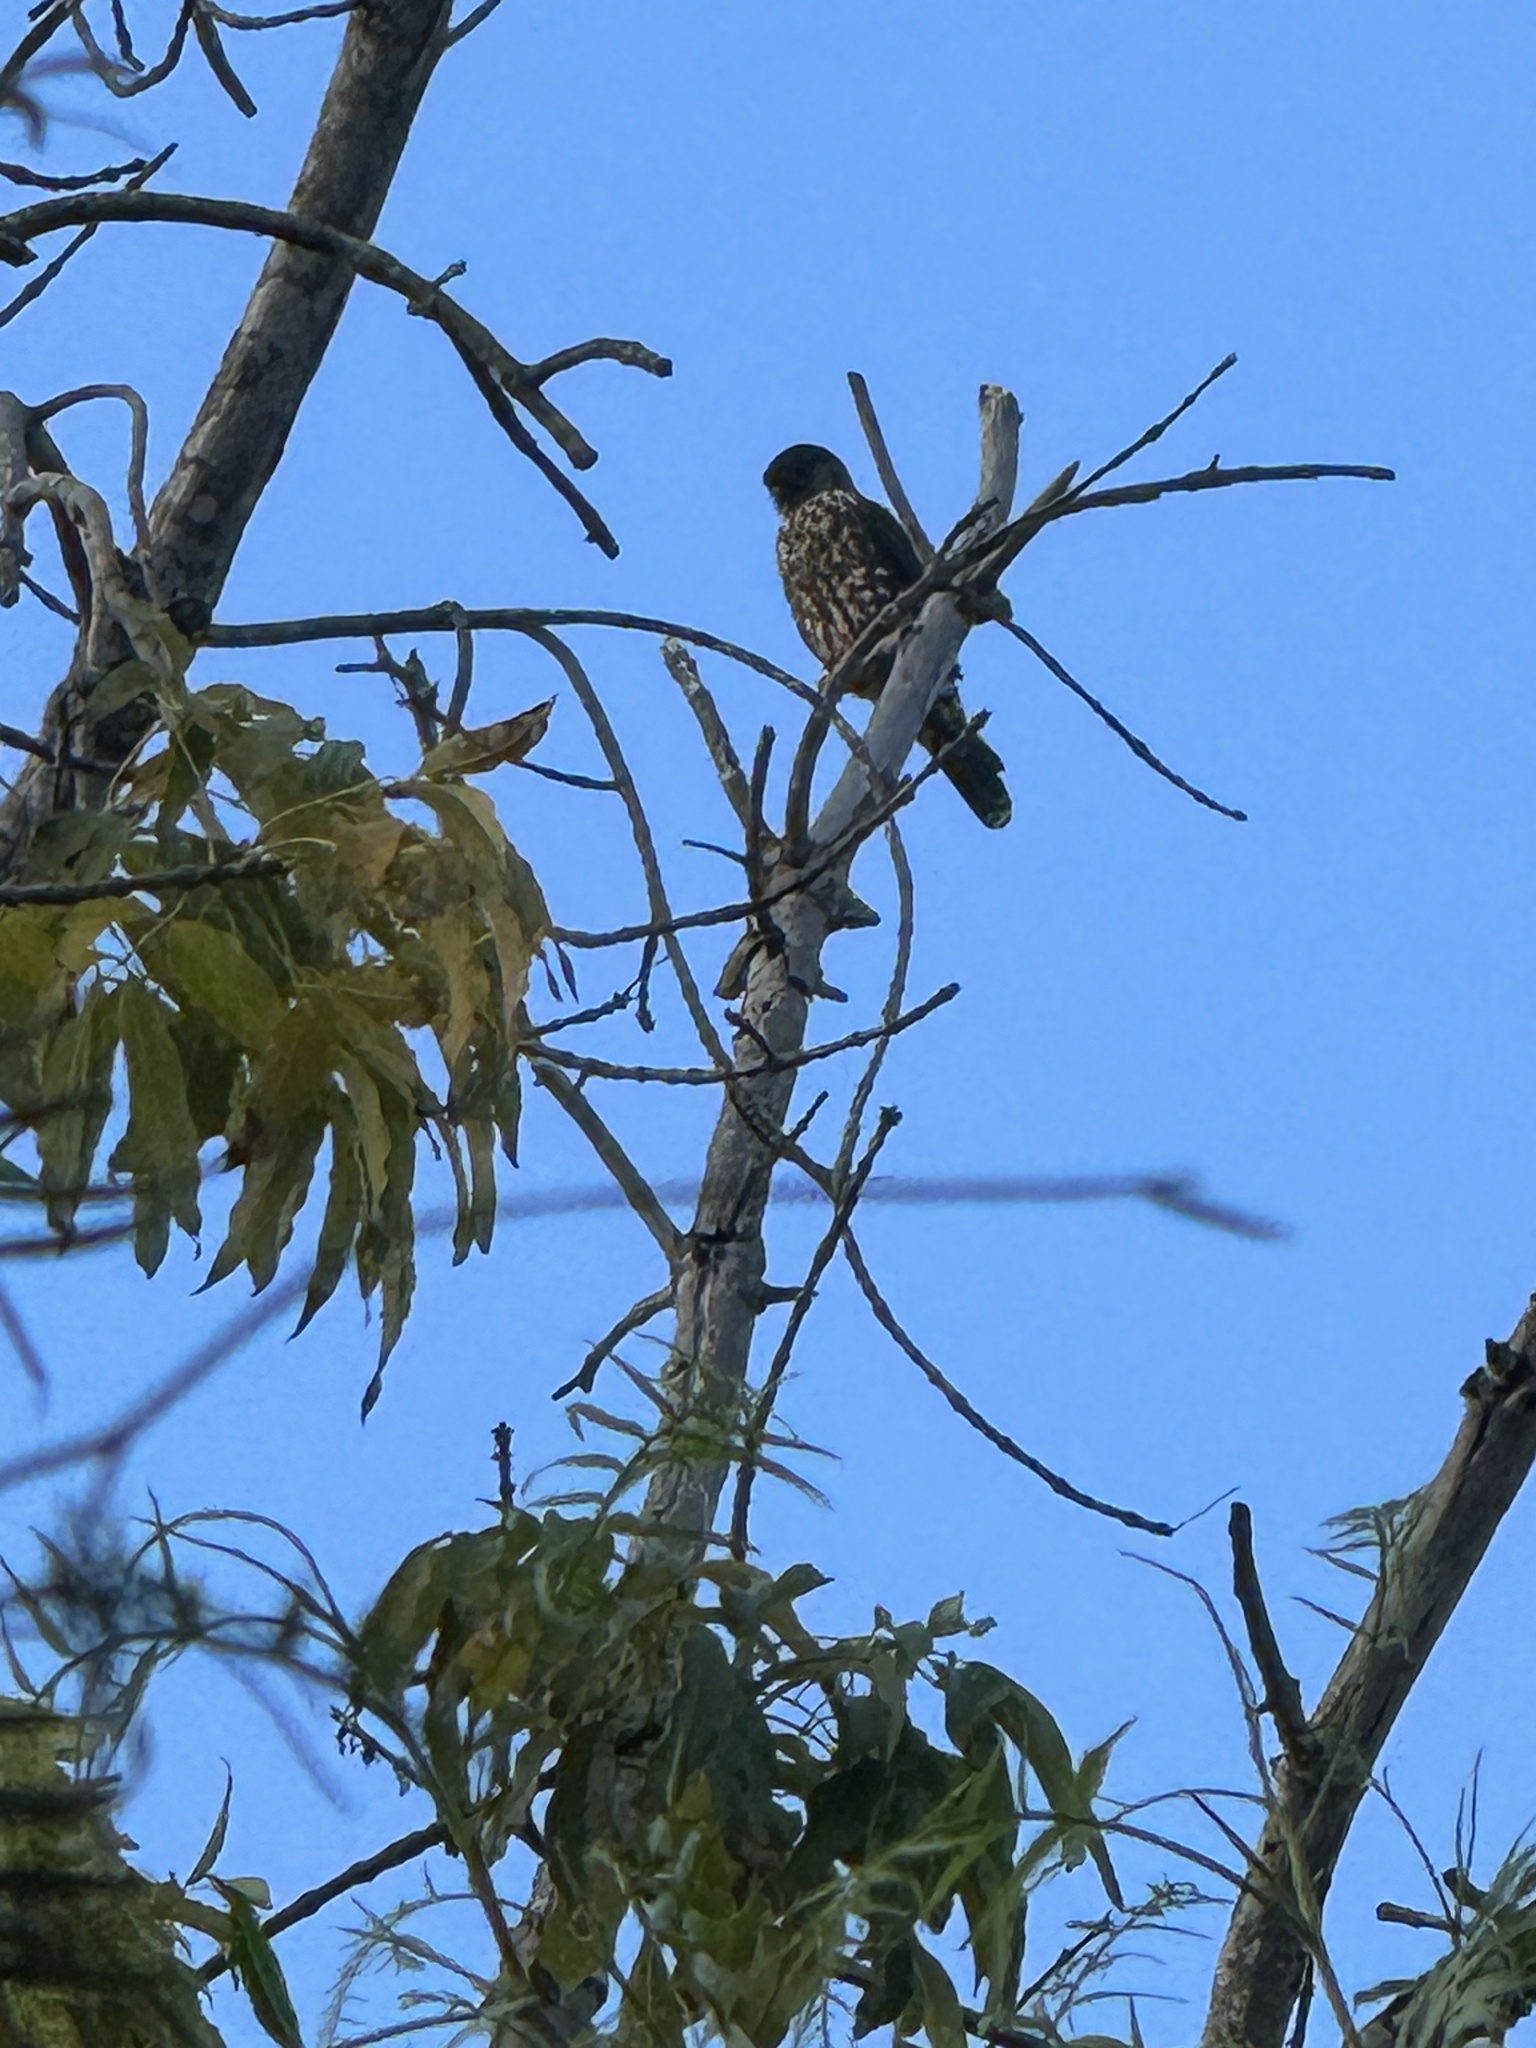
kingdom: Animalia
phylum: Chordata
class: Aves
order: Falconiformes
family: Falconidae
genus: Falco
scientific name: Falco columbarius
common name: Merlin
